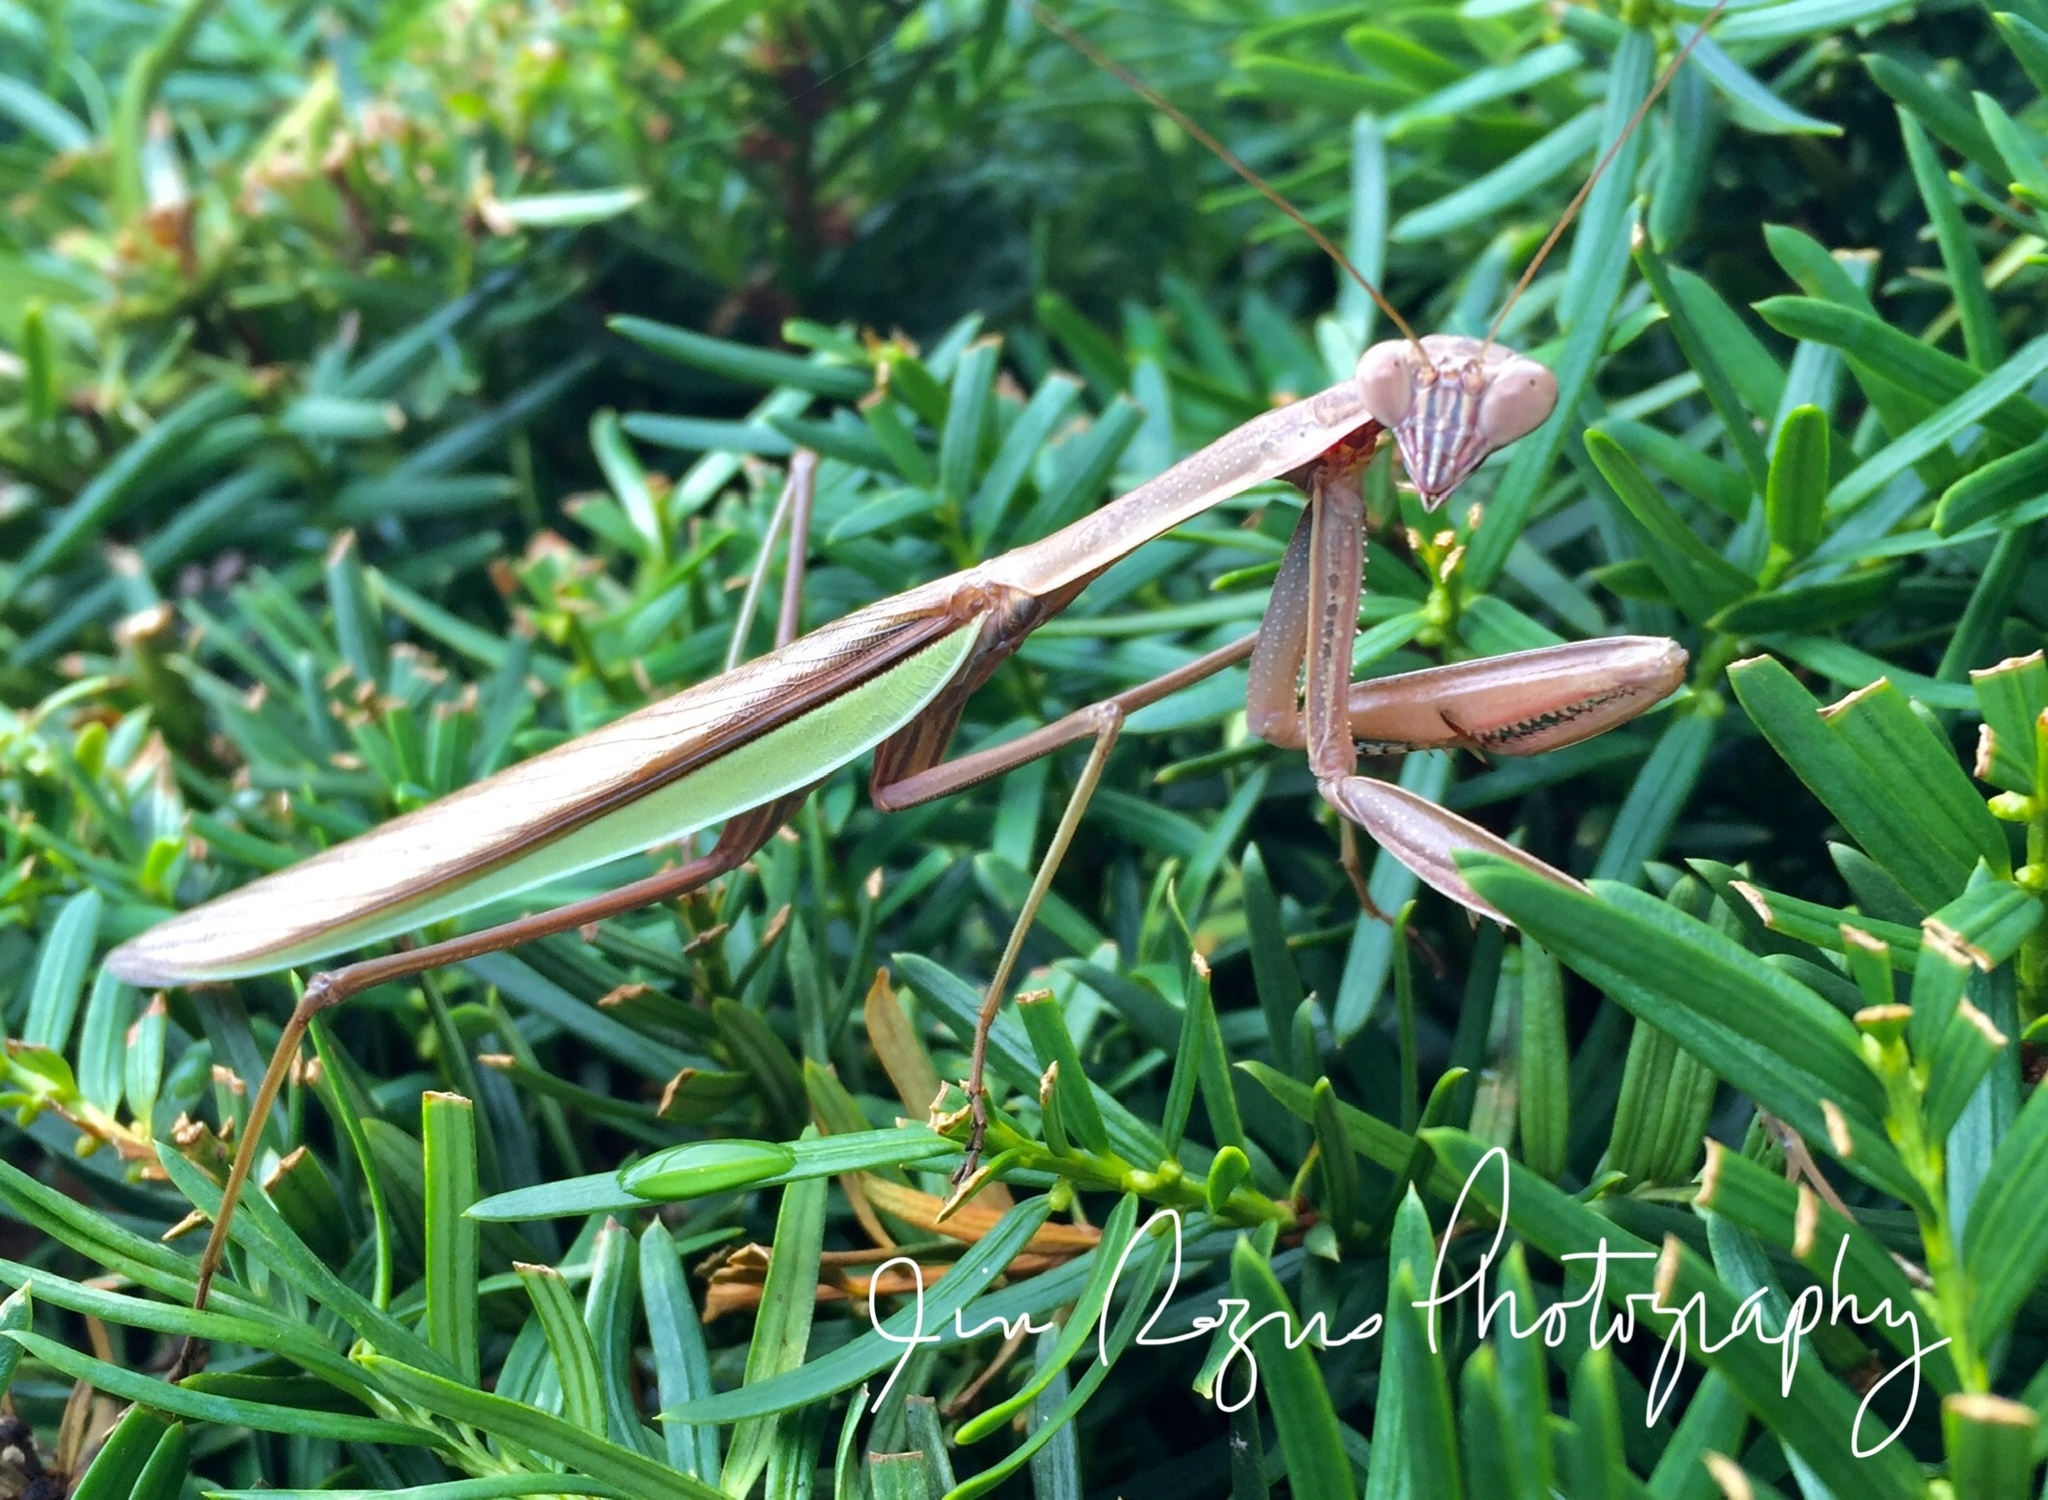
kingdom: Animalia
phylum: Arthropoda
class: Insecta
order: Mantodea
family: Mantidae
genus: Tenodera
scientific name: Tenodera sinensis
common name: Chinese mantis
